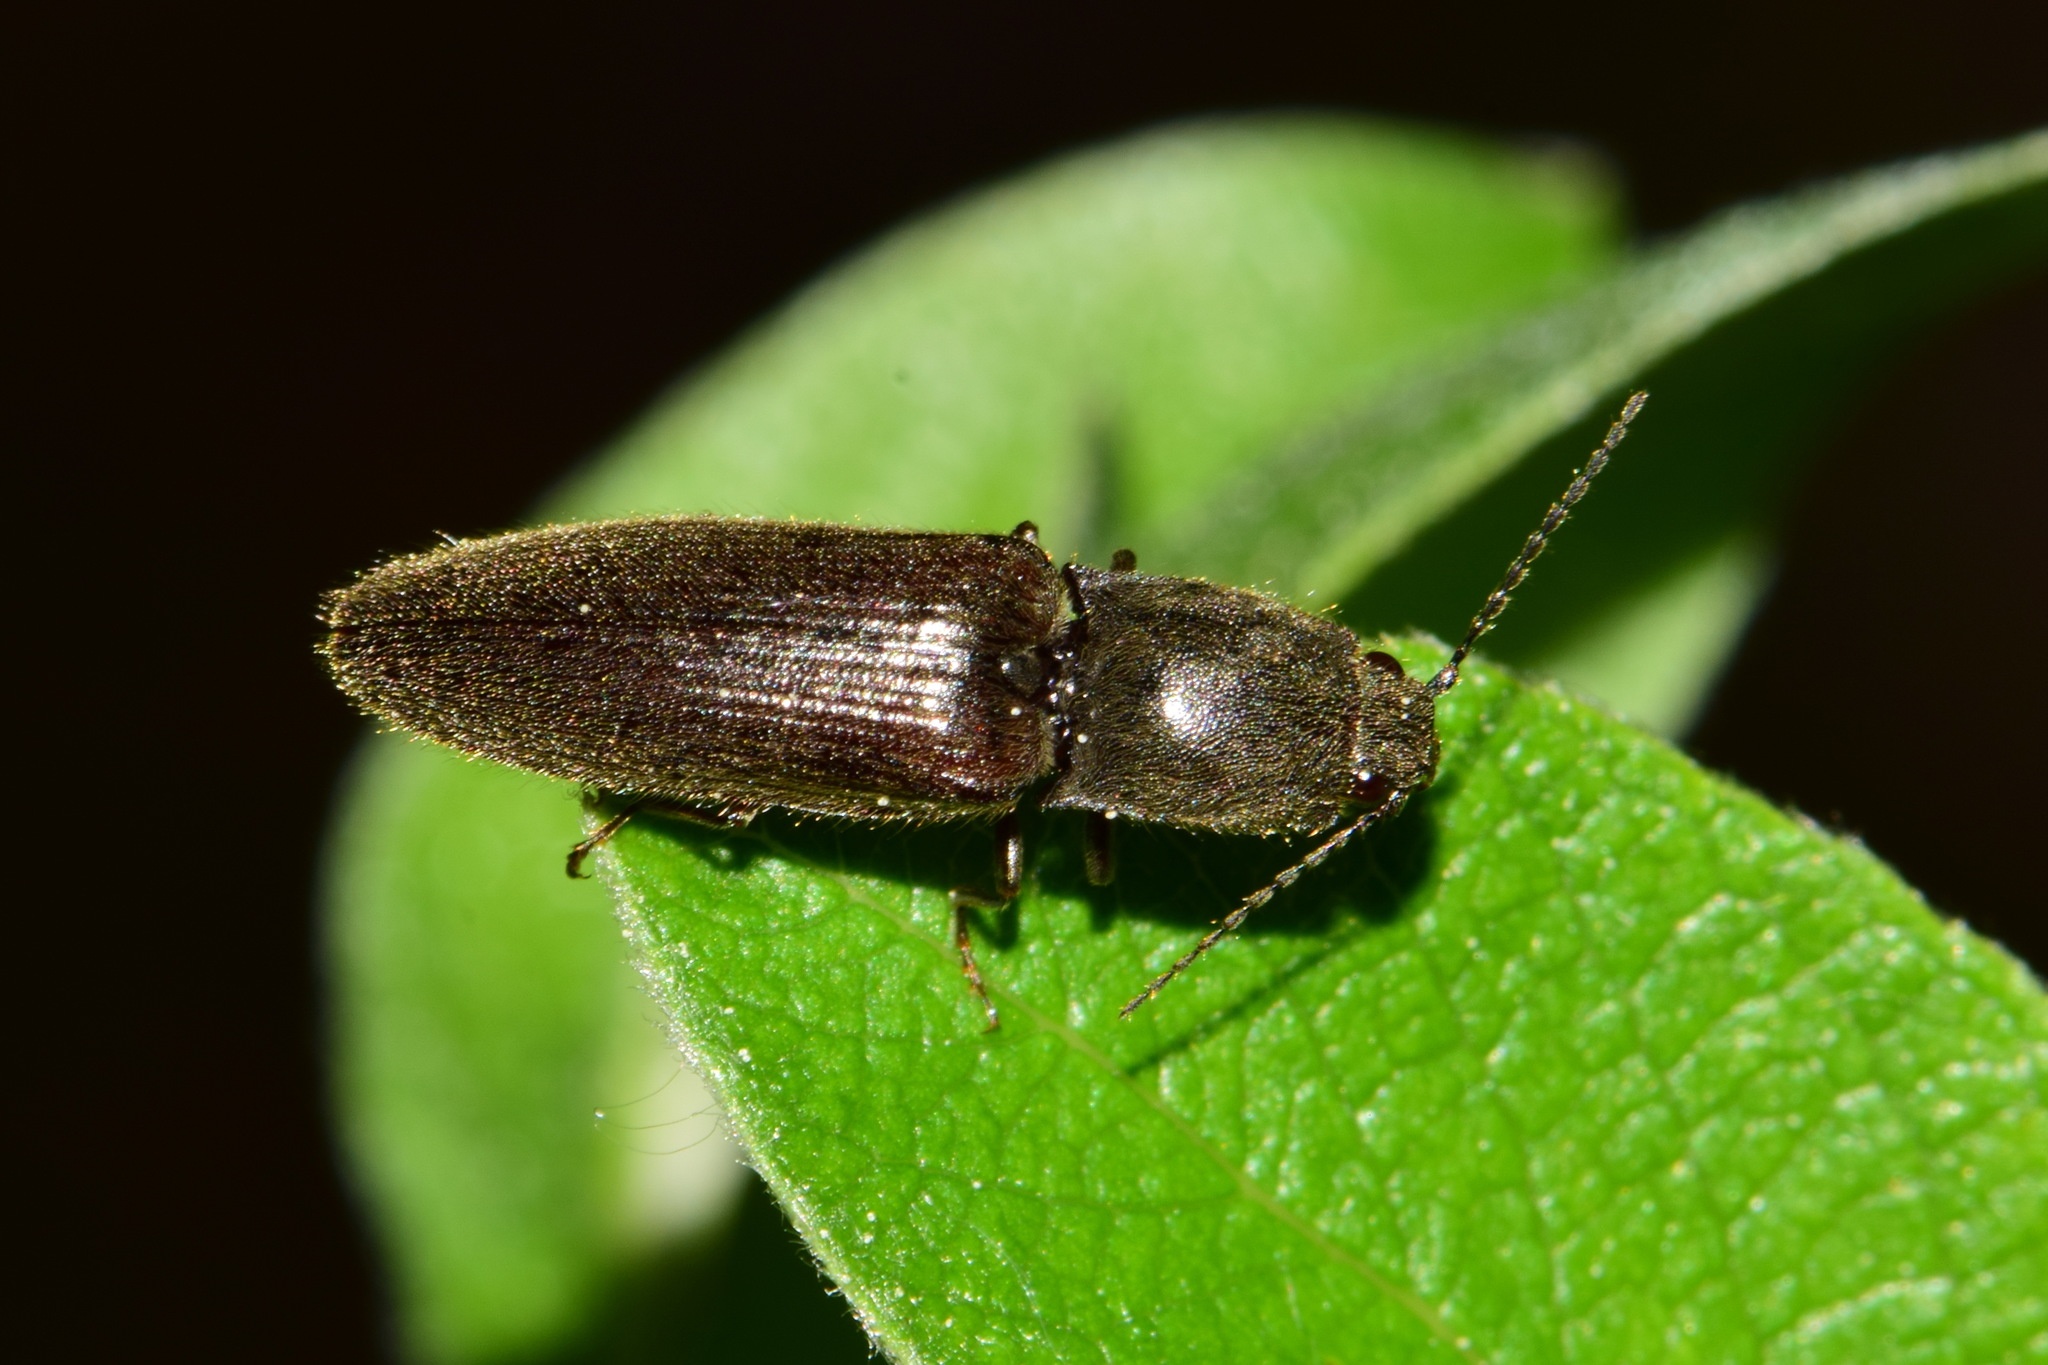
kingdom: Animalia
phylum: Arthropoda
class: Insecta
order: Coleoptera
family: Elateridae
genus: Athous
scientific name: Athous haemorrhoidalis
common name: Red-brown click beetle
